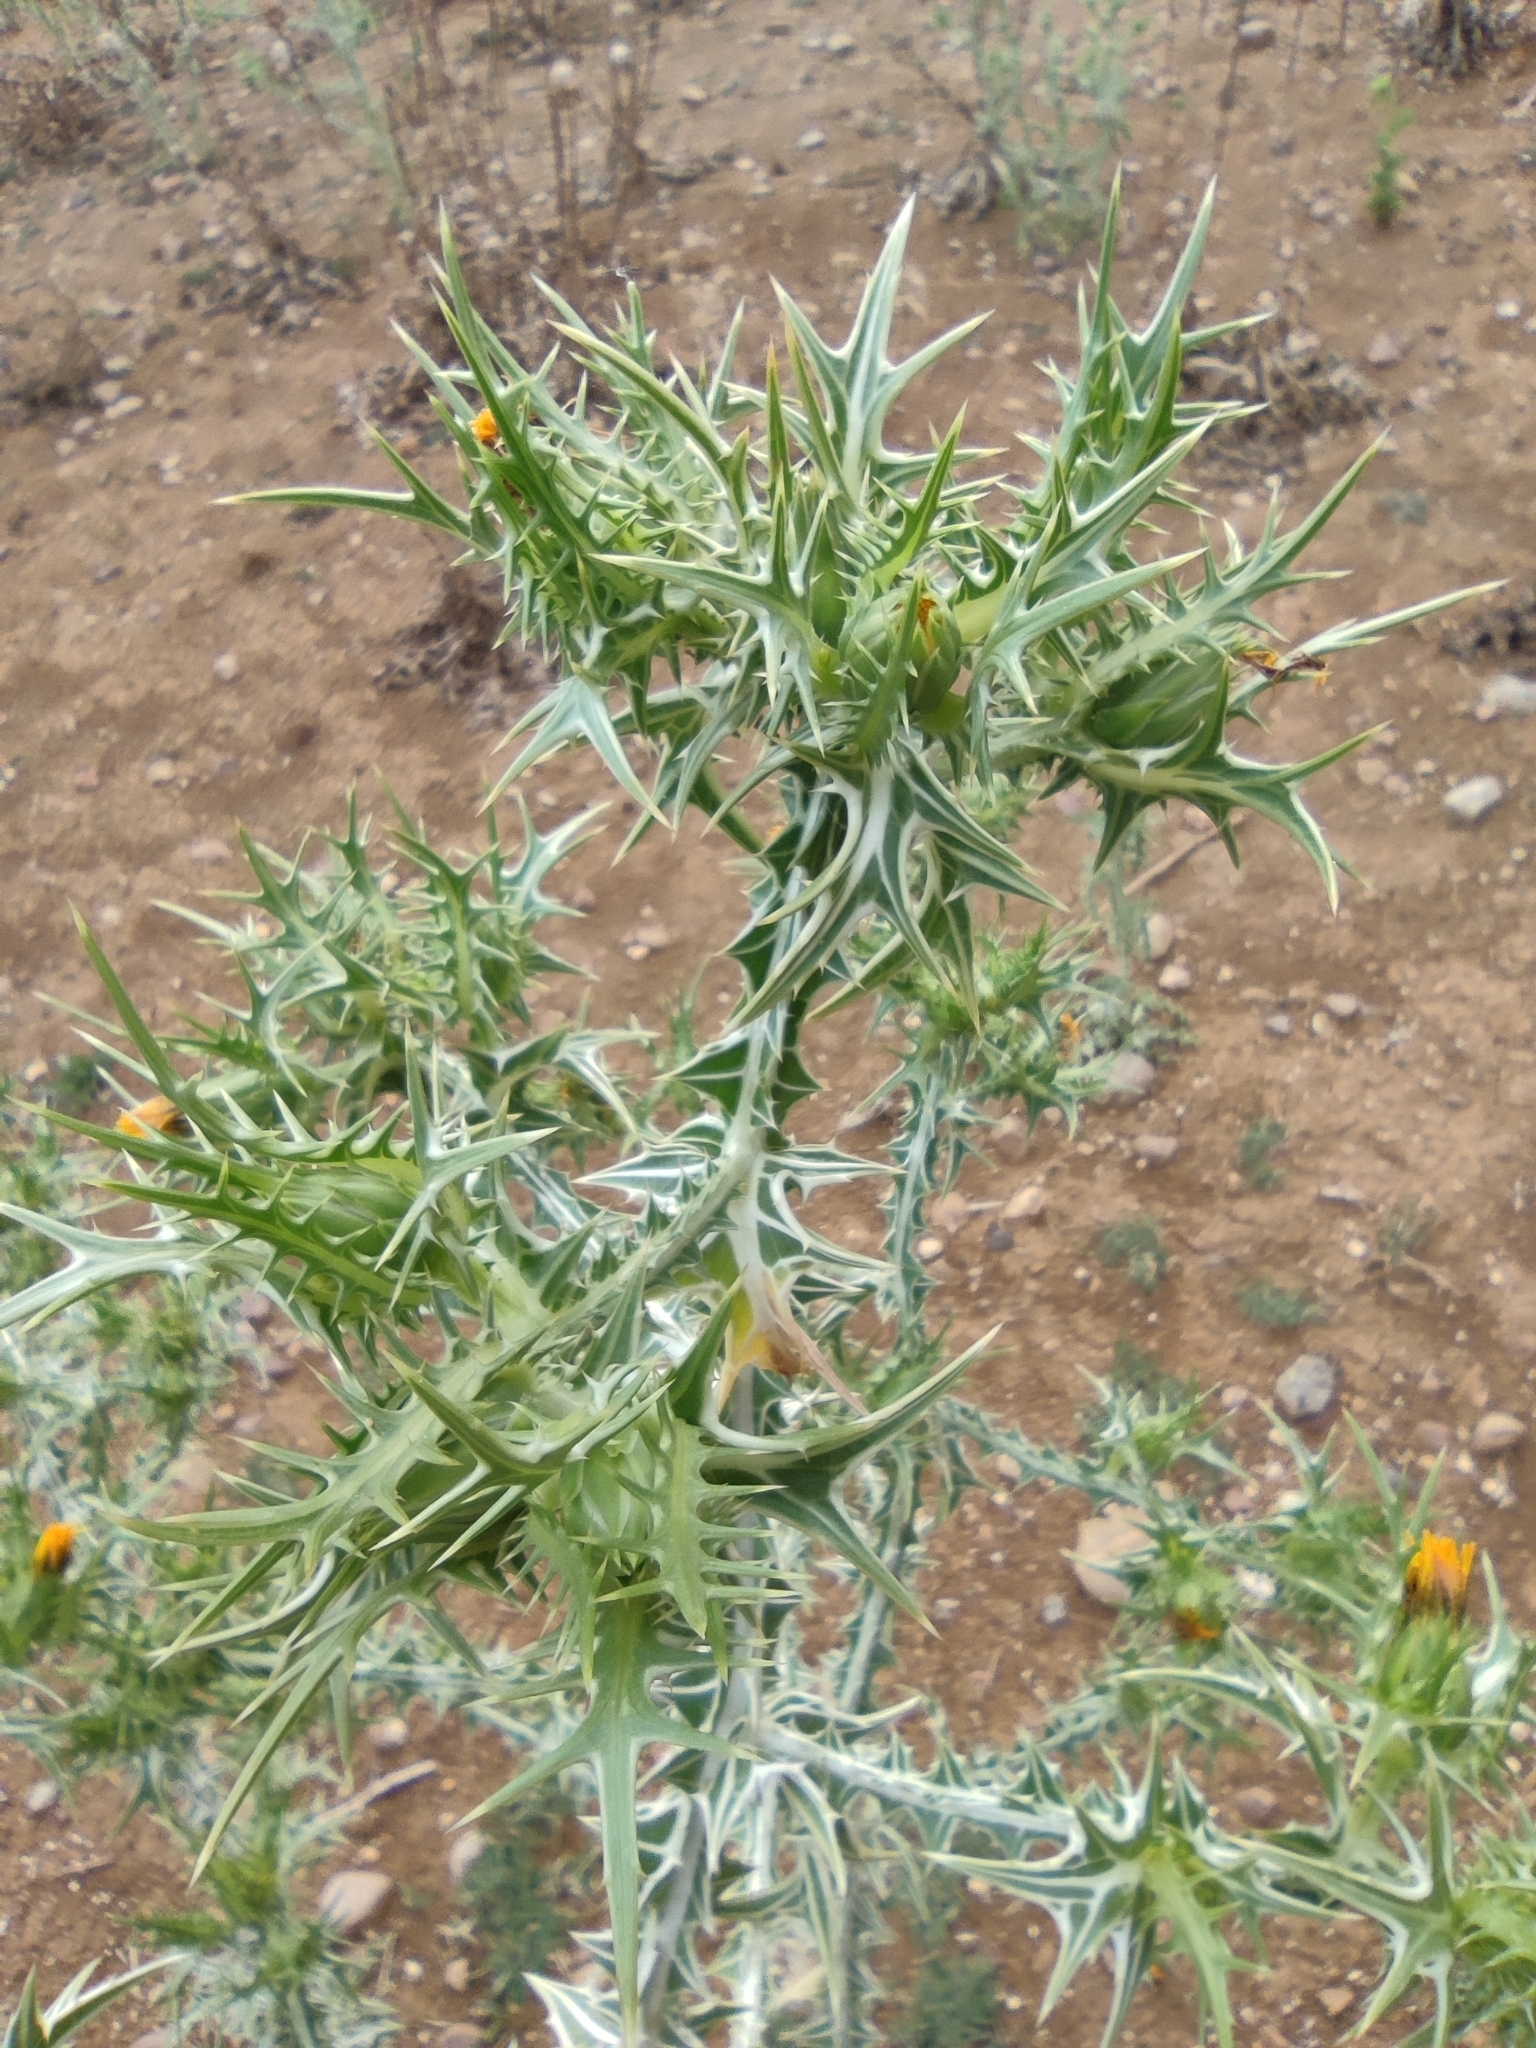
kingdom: Plantae
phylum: Tracheophyta
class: Magnoliopsida
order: Asterales
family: Asteraceae
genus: Scolymus
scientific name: Scolymus maculatus
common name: Spotted thistle
